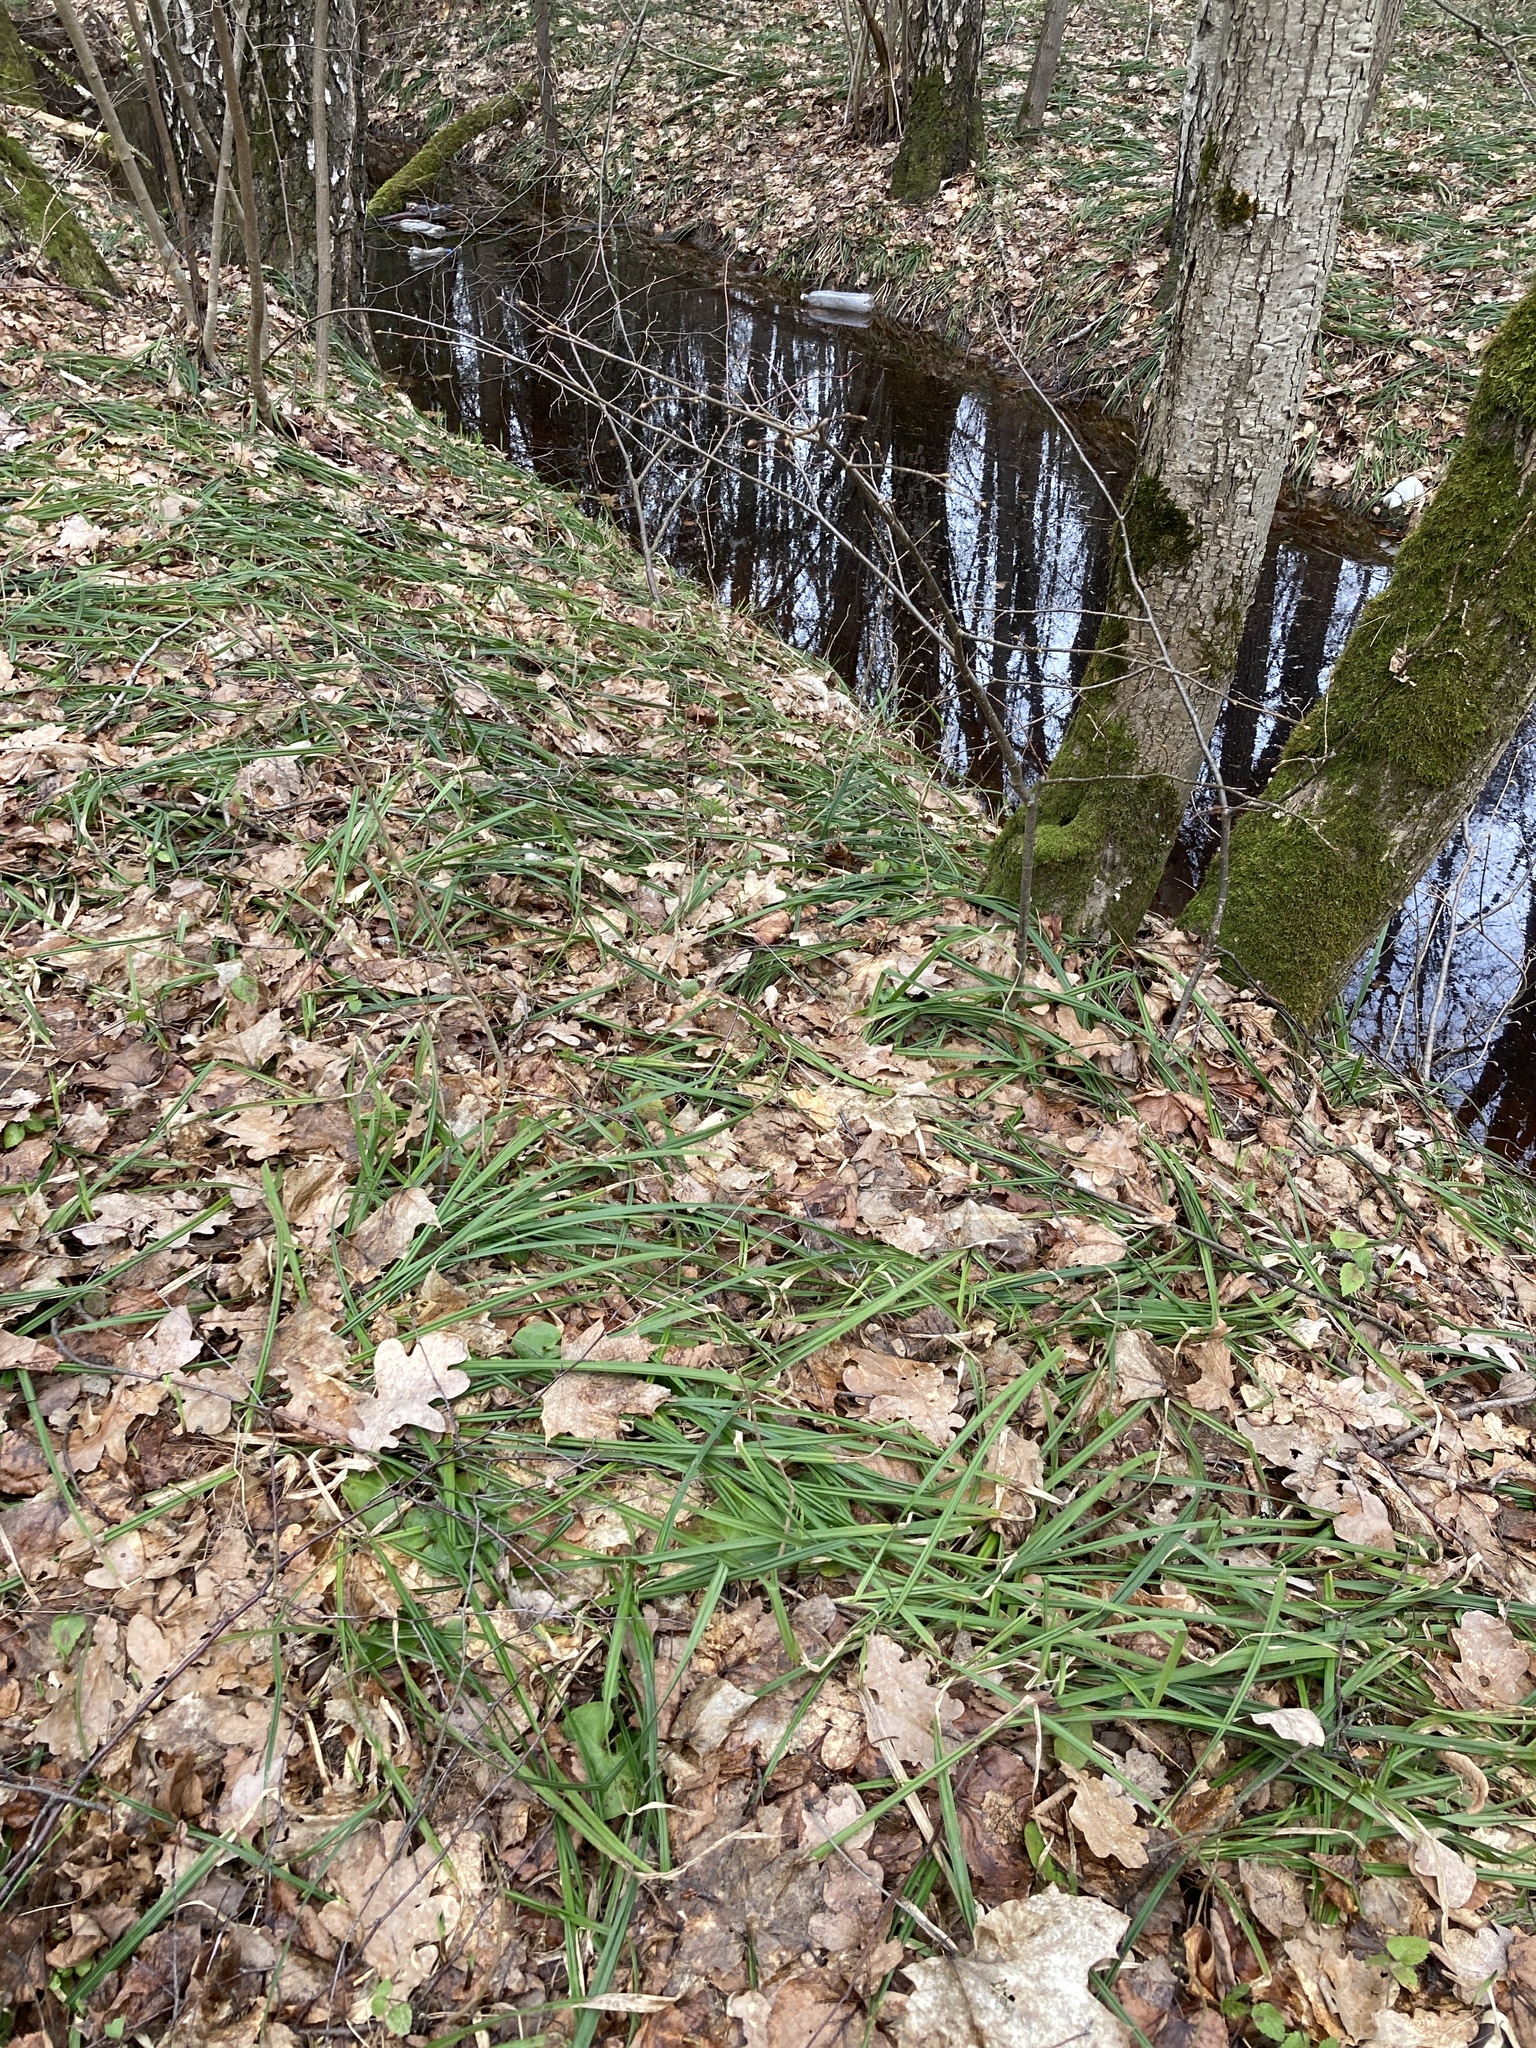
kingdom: Plantae
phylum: Tracheophyta
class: Liliopsida
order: Poales
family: Cyperaceae
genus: Carex
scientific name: Carex pilosa
